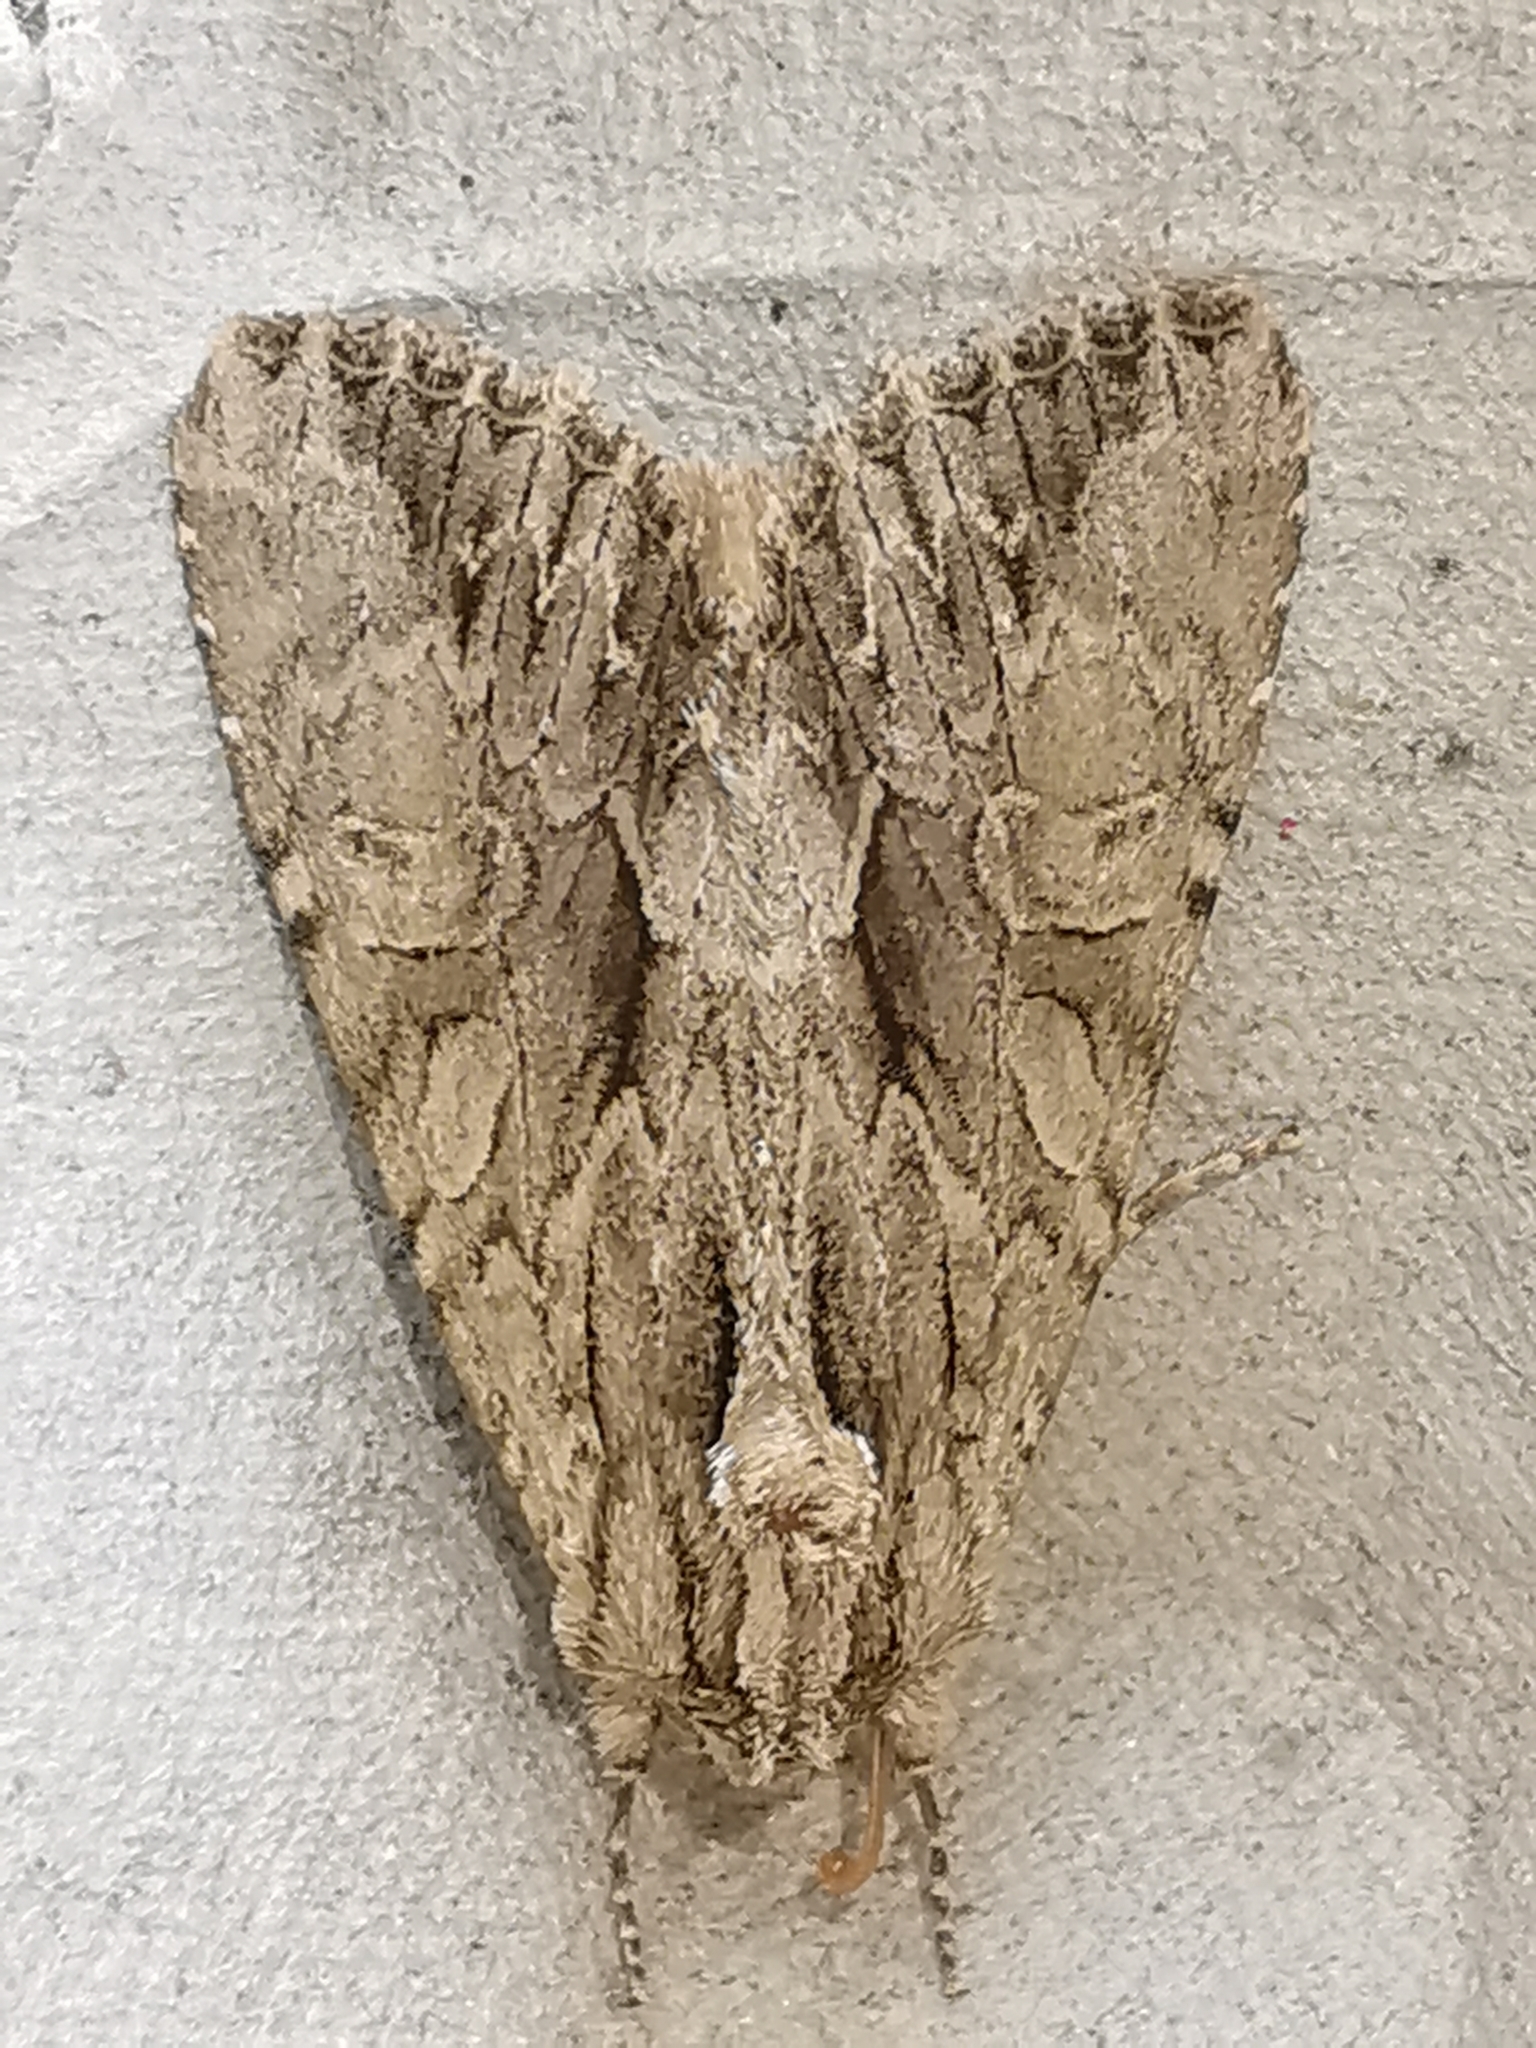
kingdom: Animalia
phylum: Arthropoda
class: Insecta
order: Lepidoptera
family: Noctuidae
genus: Apamea
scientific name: Apamea monoglypha
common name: Dark arches
